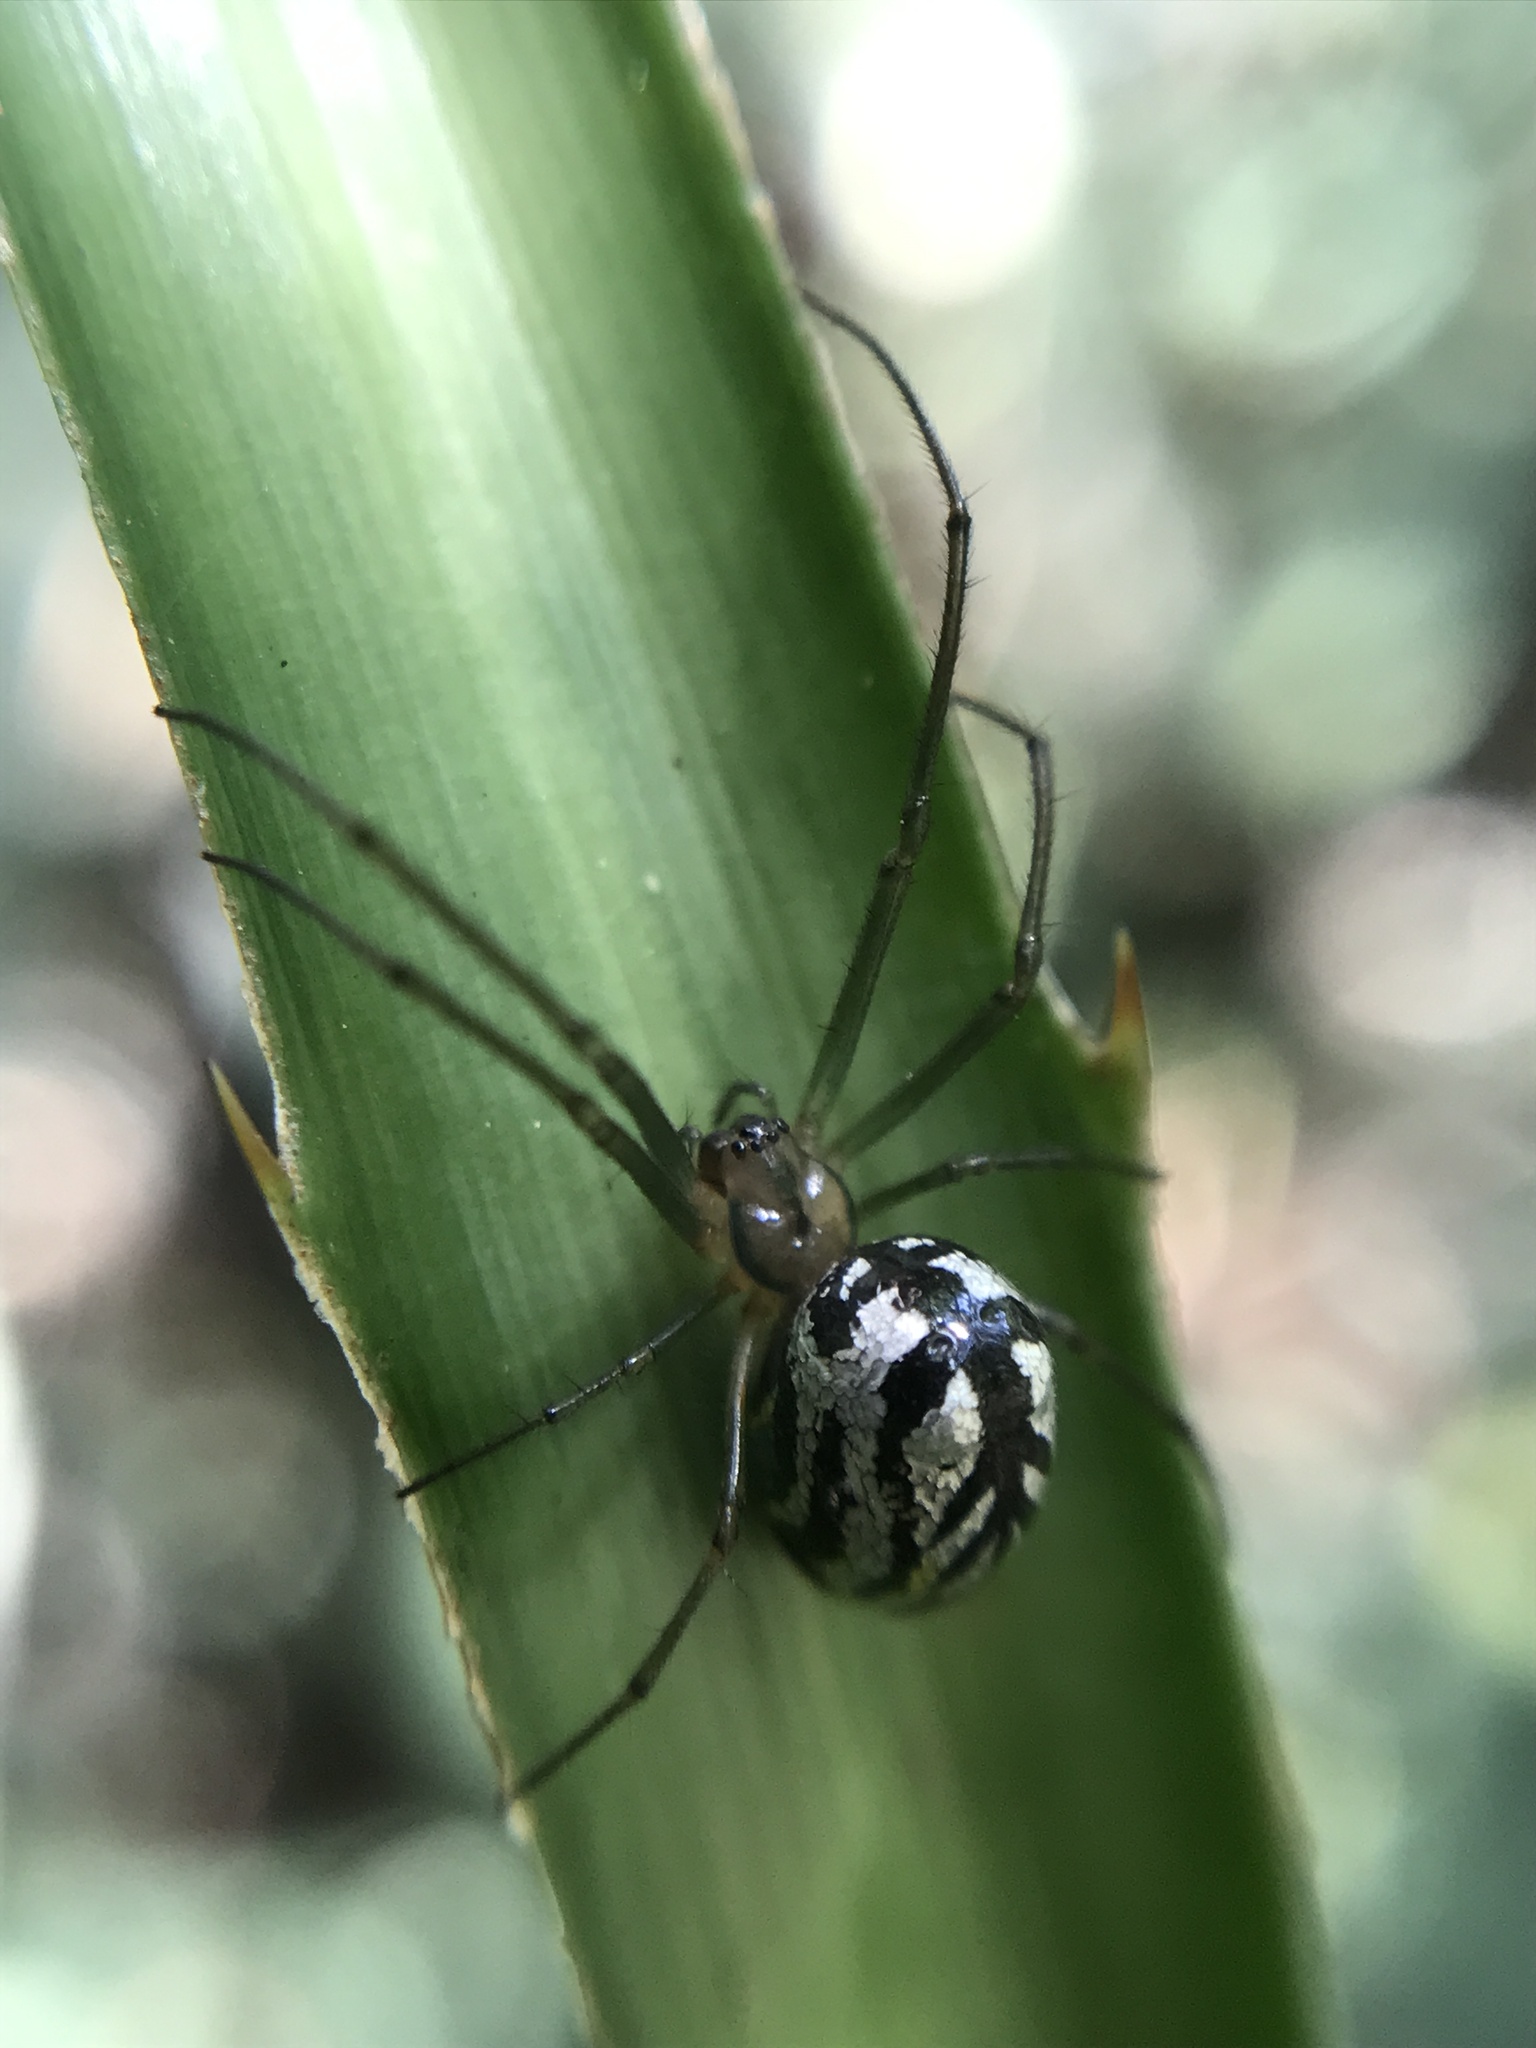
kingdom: Animalia
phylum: Arthropoda
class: Arachnida
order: Araneae
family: Tetragnathidae
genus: Leucauge
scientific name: Leucauge volupis
